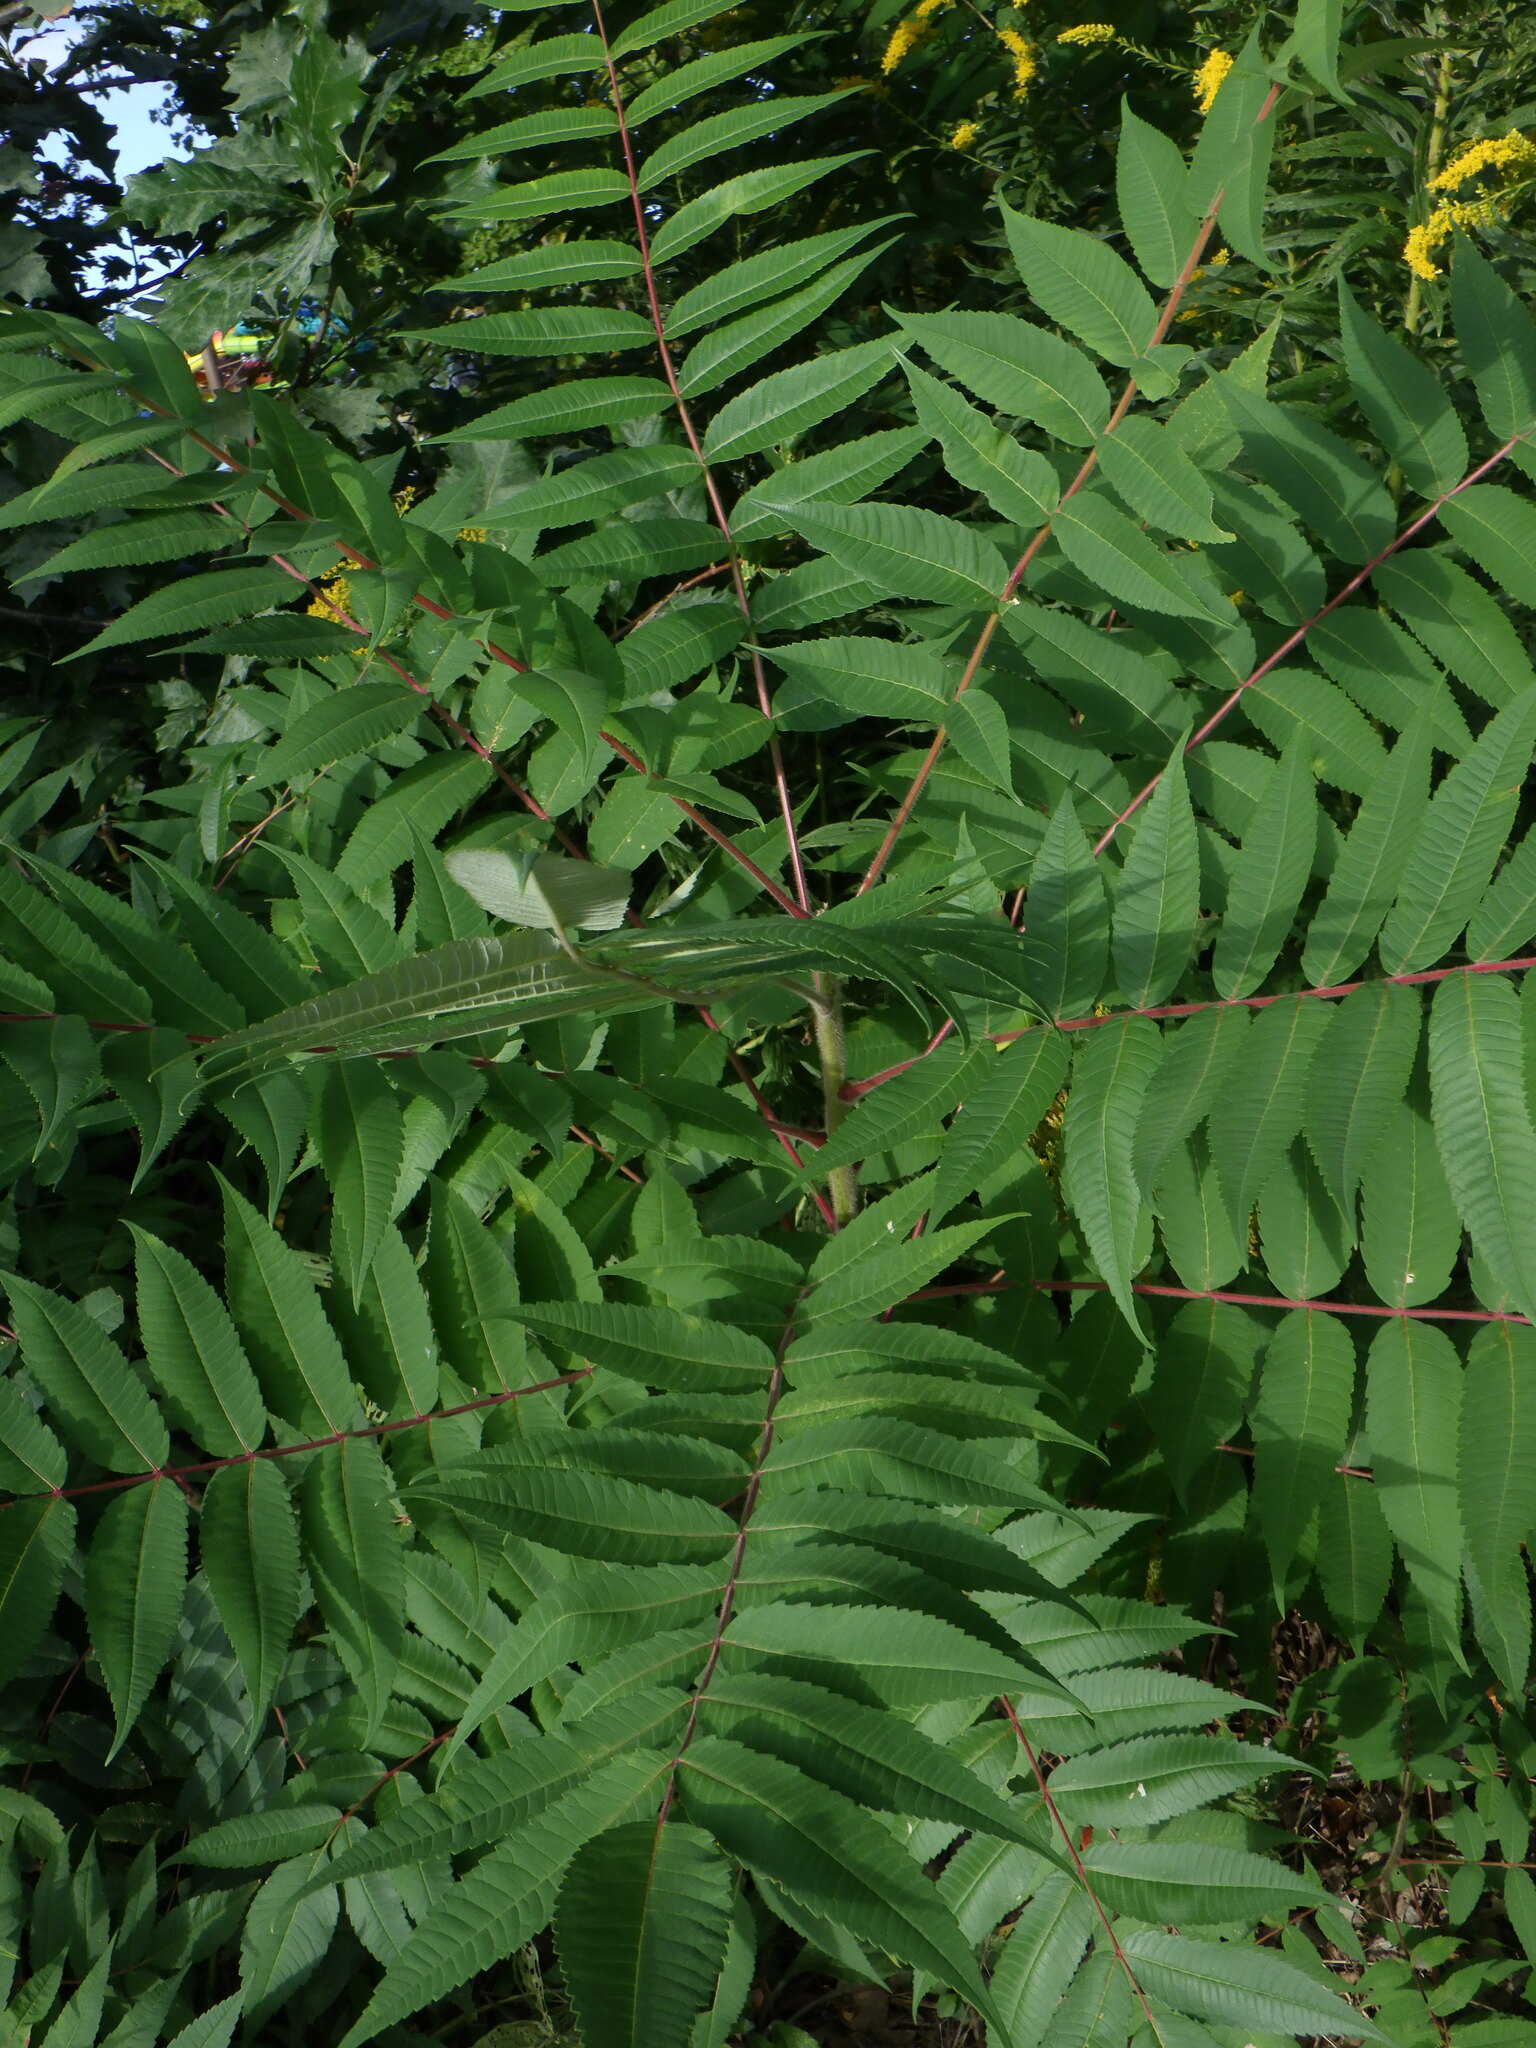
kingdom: Plantae
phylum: Tracheophyta
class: Magnoliopsida
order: Sapindales
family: Anacardiaceae
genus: Rhus
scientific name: Rhus typhina
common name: Staghorn sumac
